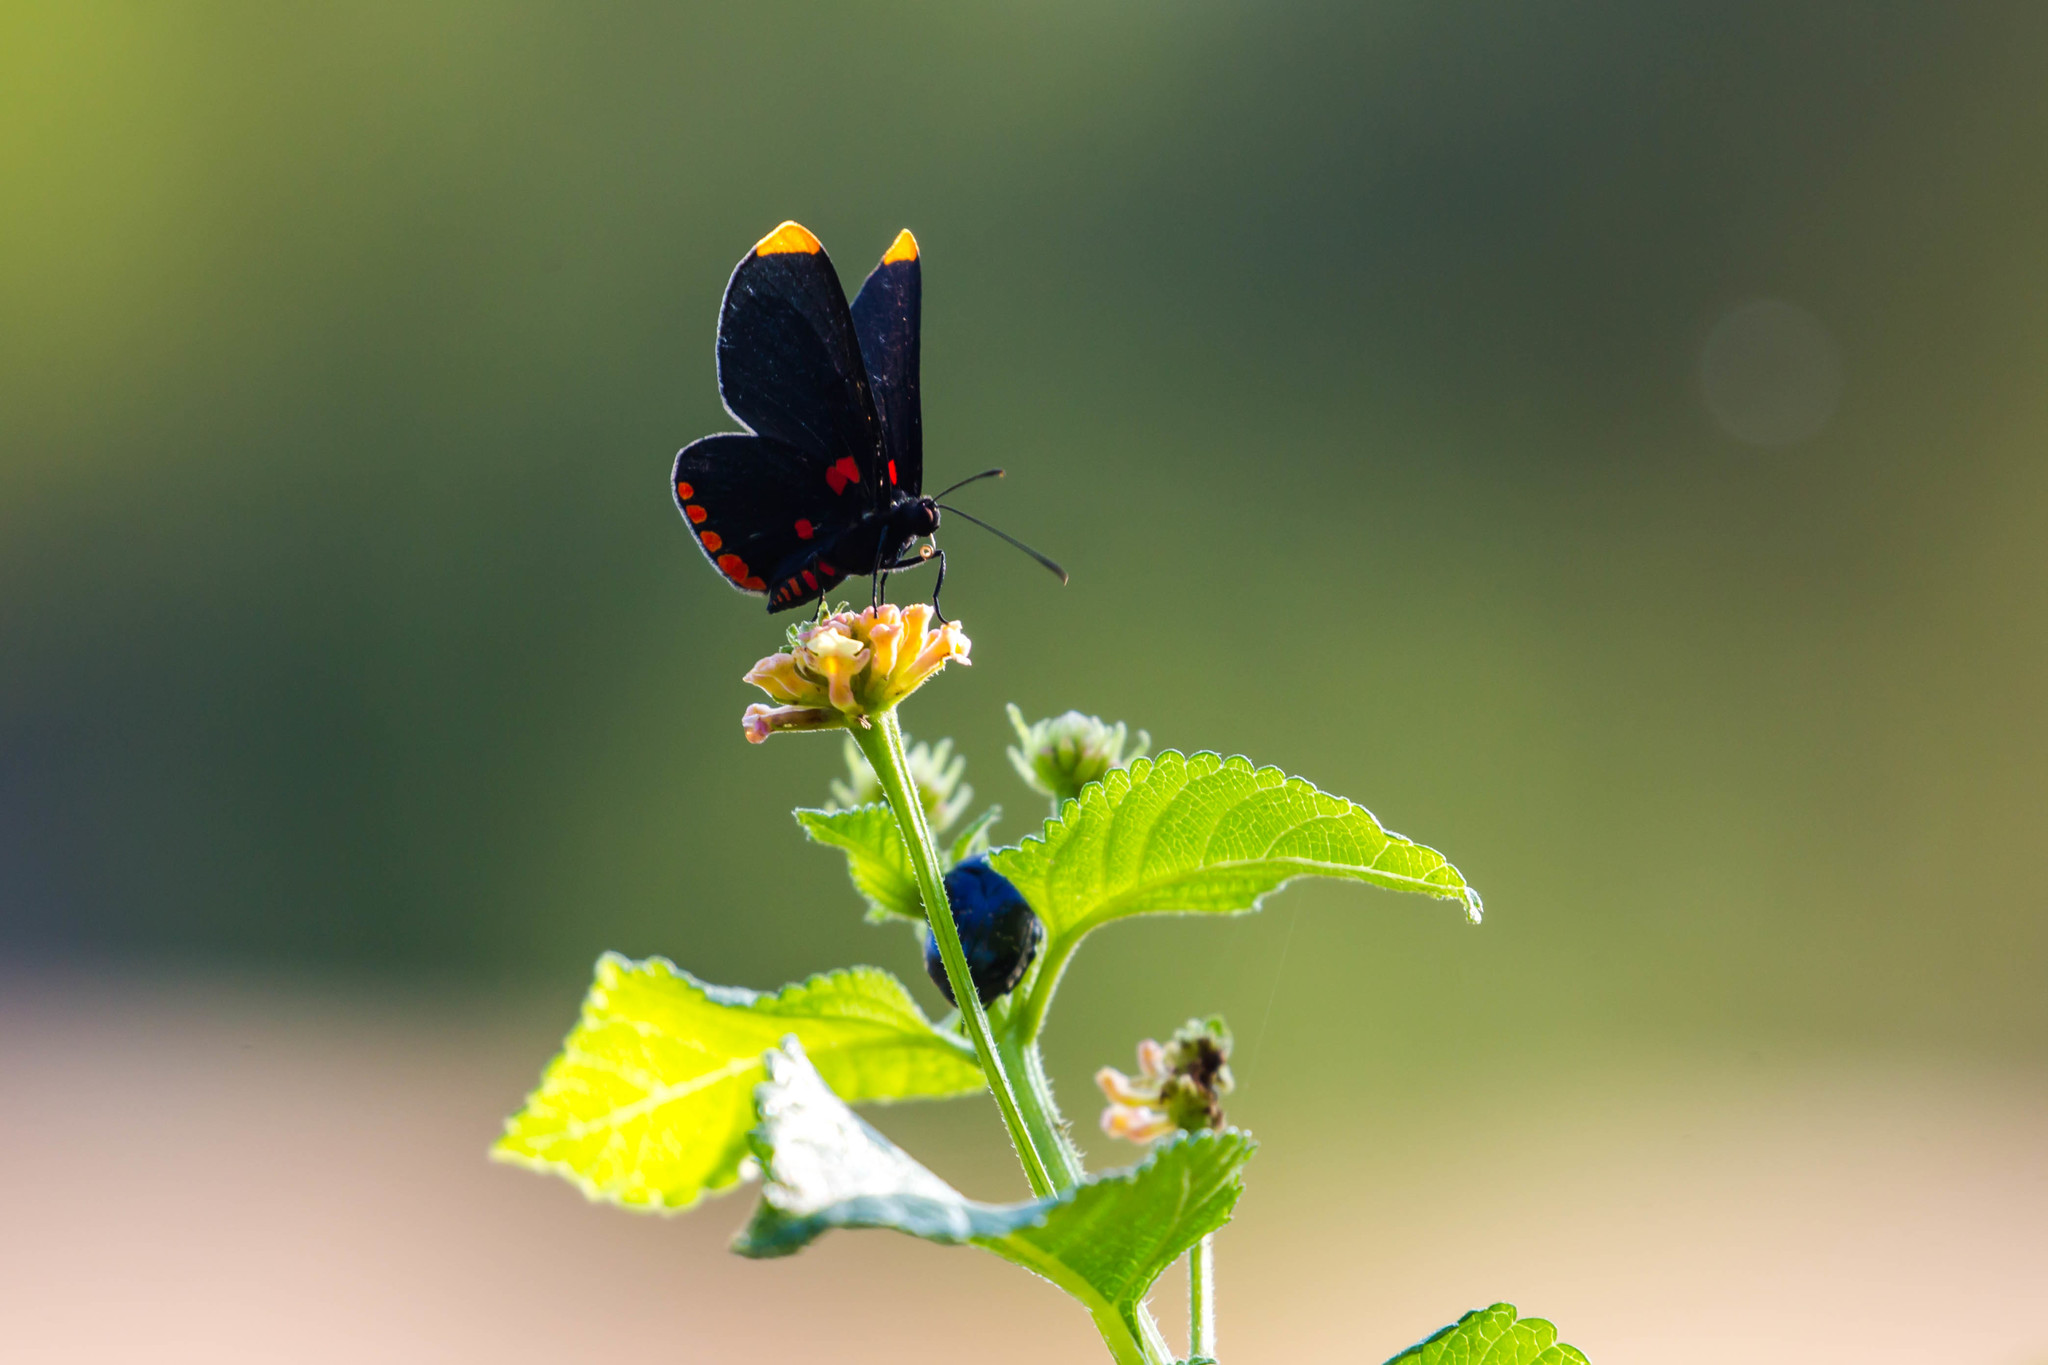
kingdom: Animalia
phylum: Arthropoda
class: Insecta
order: Lepidoptera
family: Lycaenidae
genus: Melanis
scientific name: Melanis pixe
